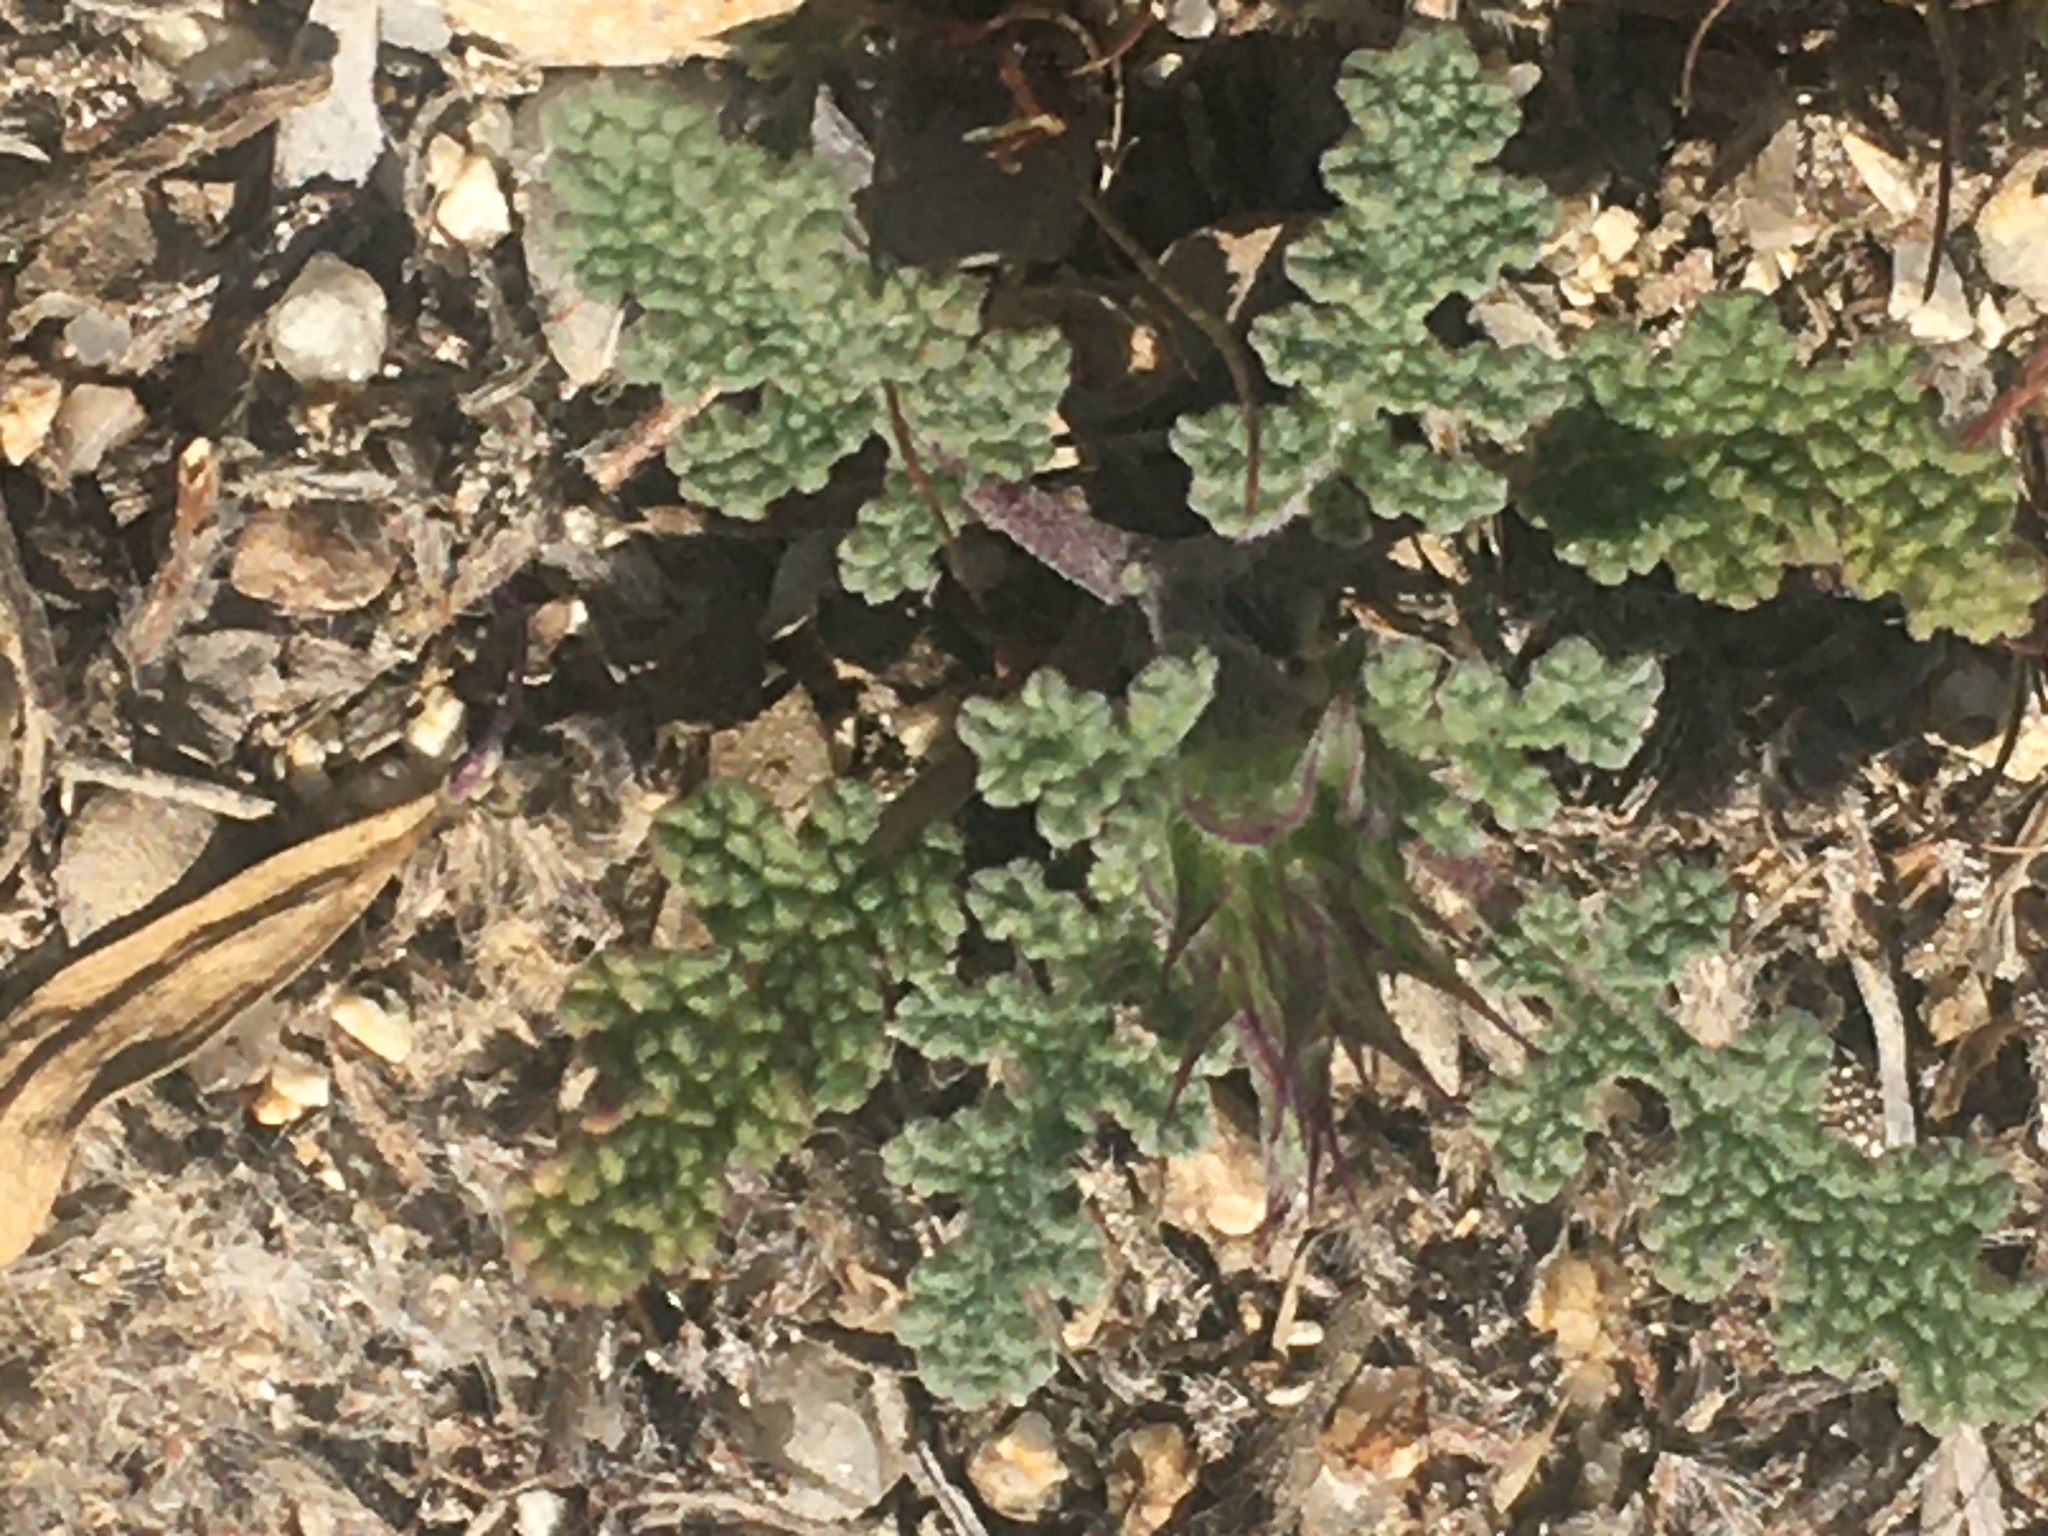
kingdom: Plantae
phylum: Tracheophyta
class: Magnoliopsida
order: Lamiales
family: Lamiaceae
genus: Salvia
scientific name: Salvia columbariae
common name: Chia
